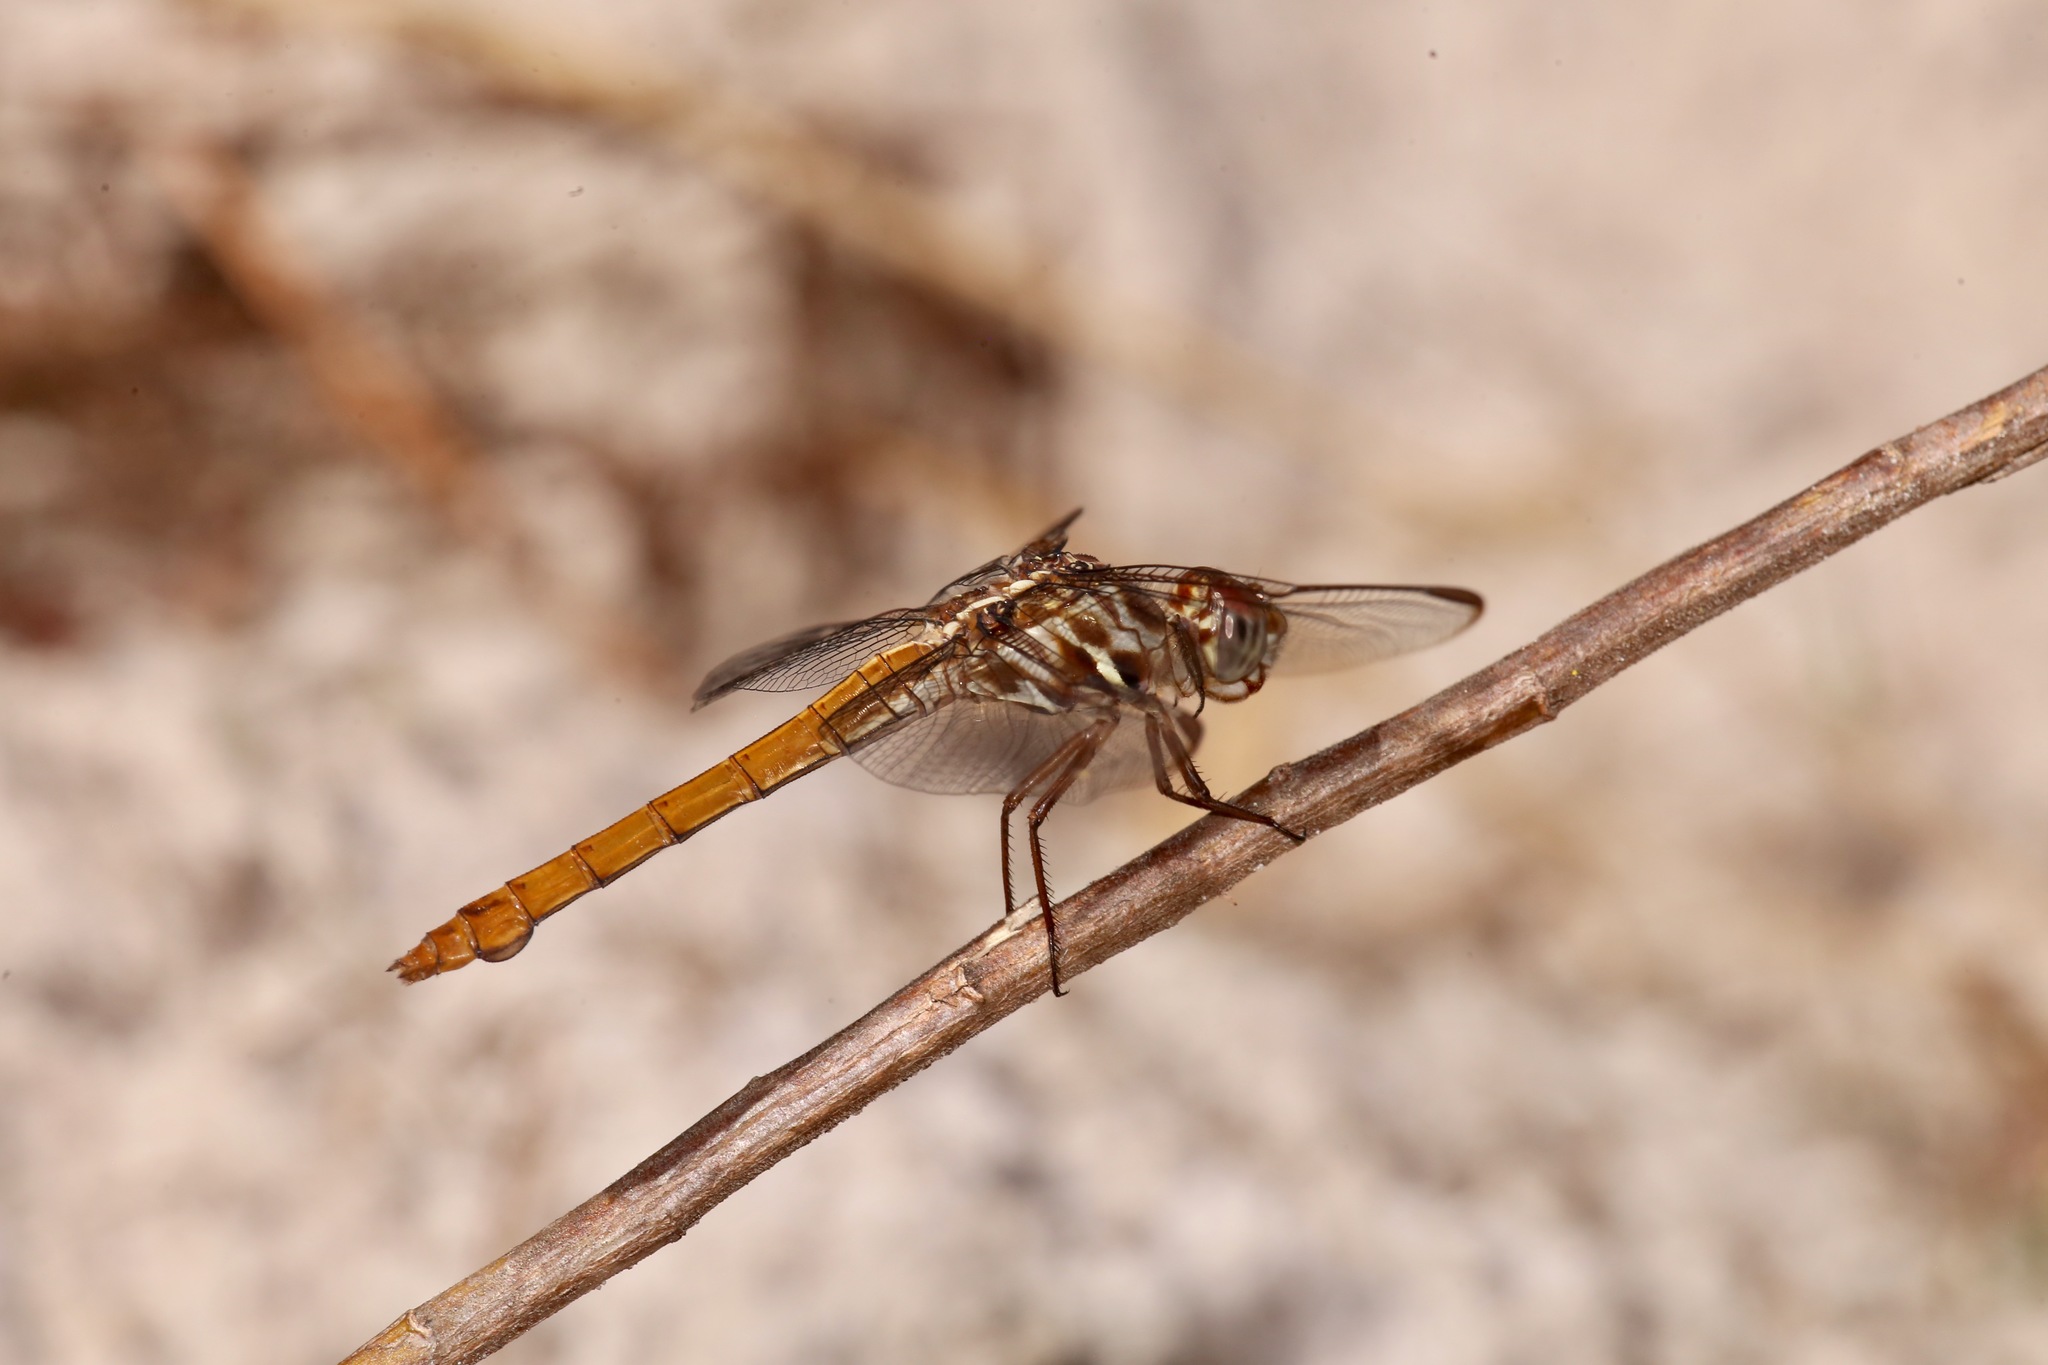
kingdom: Animalia
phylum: Arthropoda
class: Insecta
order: Odonata
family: Libellulidae
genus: Orthemis
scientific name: Orthemis ferruginea
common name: Roseate skimmer
